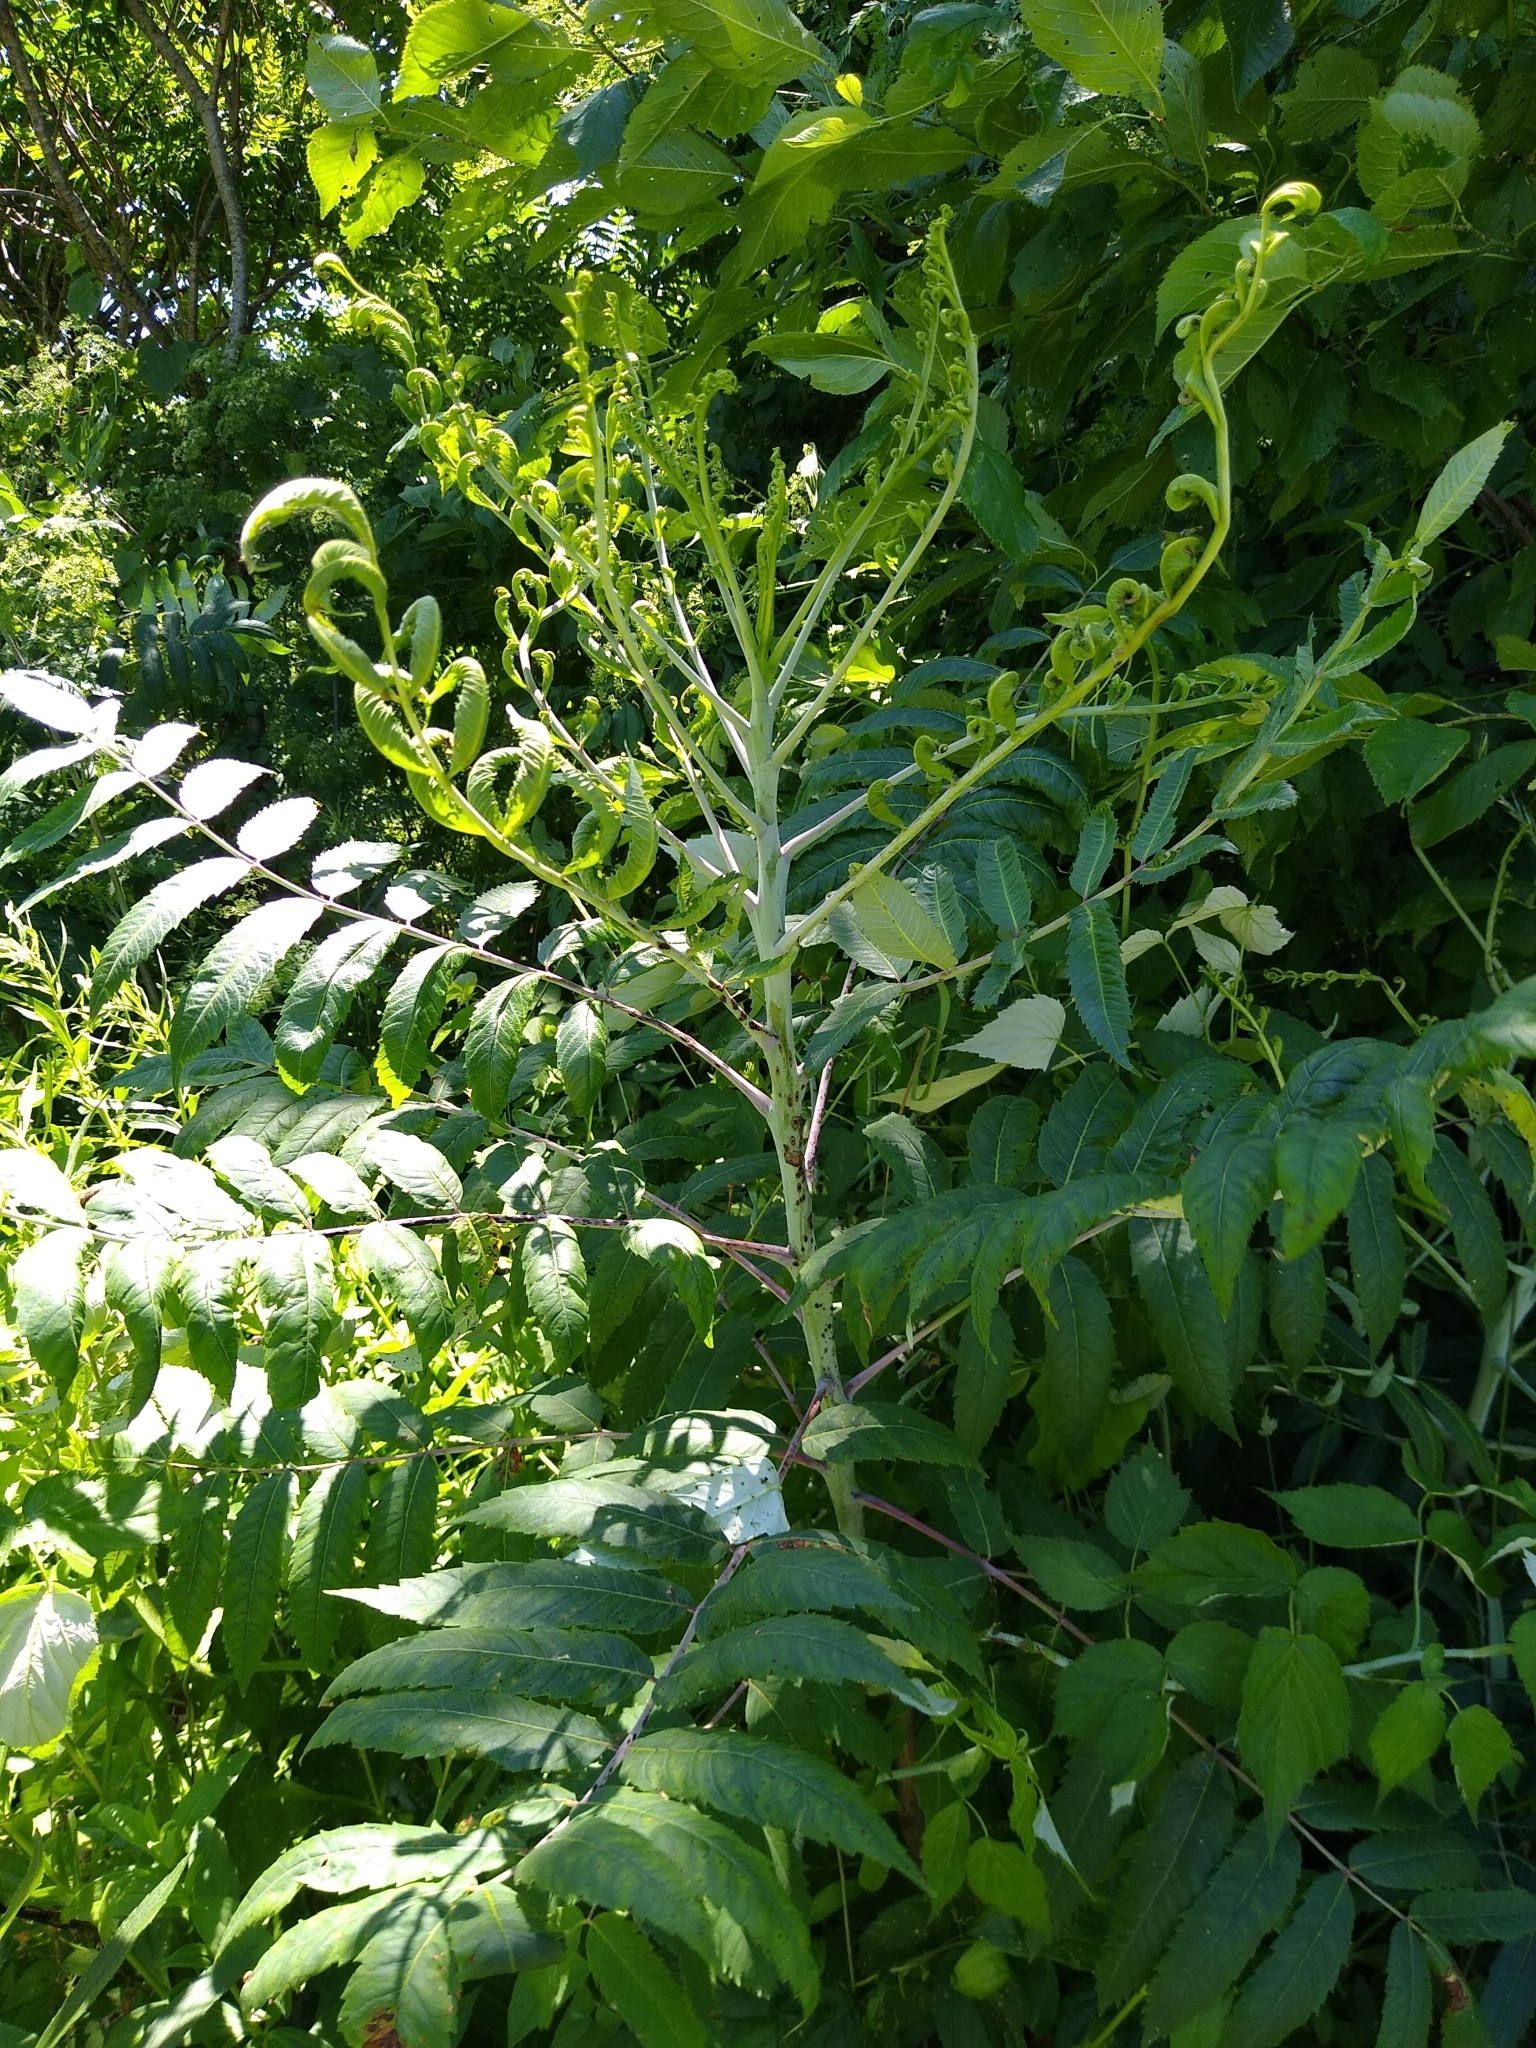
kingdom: Plantae
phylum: Tracheophyta
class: Magnoliopsida
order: Sapindales
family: Anacardiaceae
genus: Rhus
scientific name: Rhus glabra
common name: Scarlet sumac
